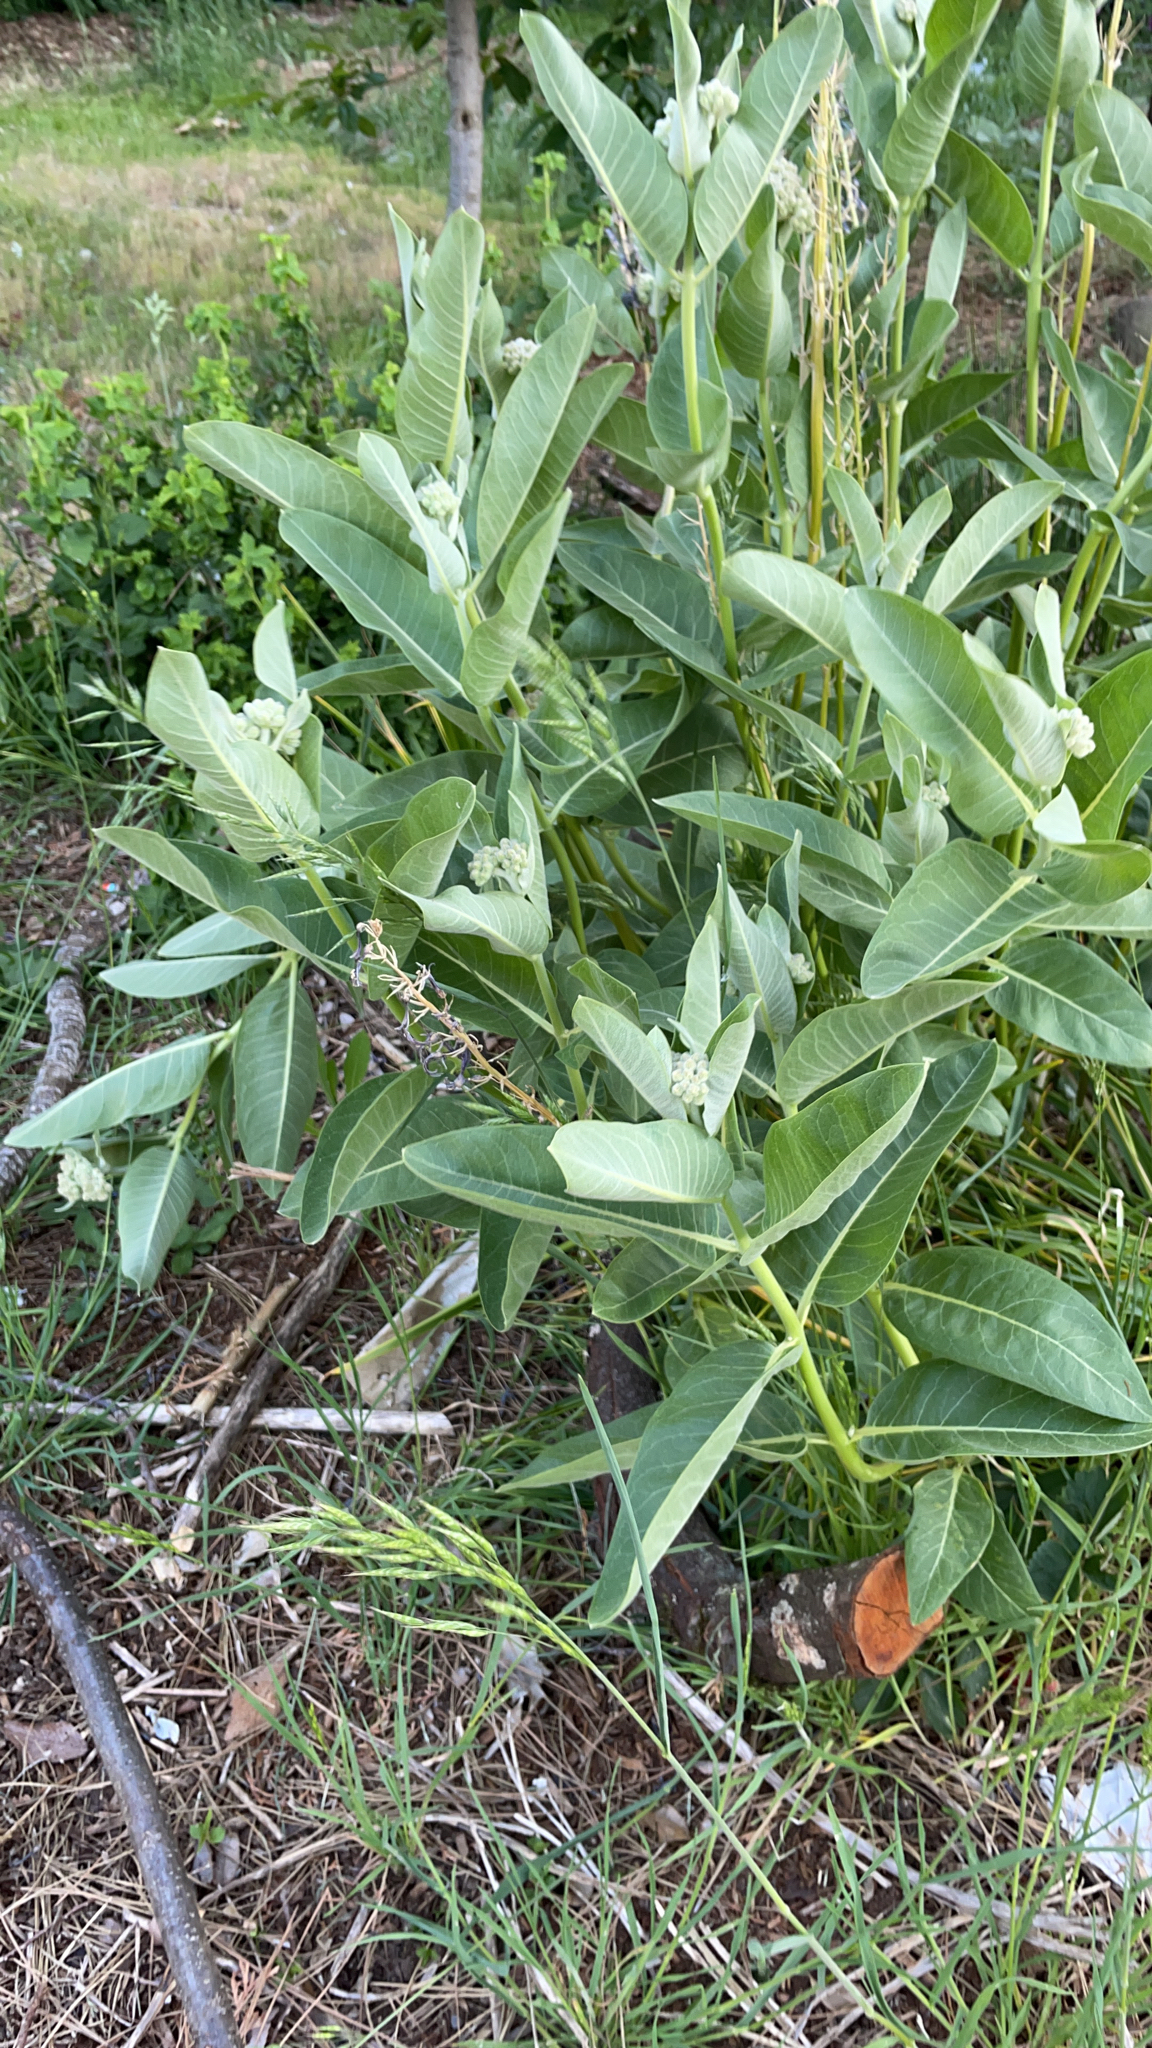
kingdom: Plantae
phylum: Tracheophyta
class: Magnoliopsida
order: Gentianales
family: Apocynaceae
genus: Asclepias
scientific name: Asclepias speciosa
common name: Showy milkweed
